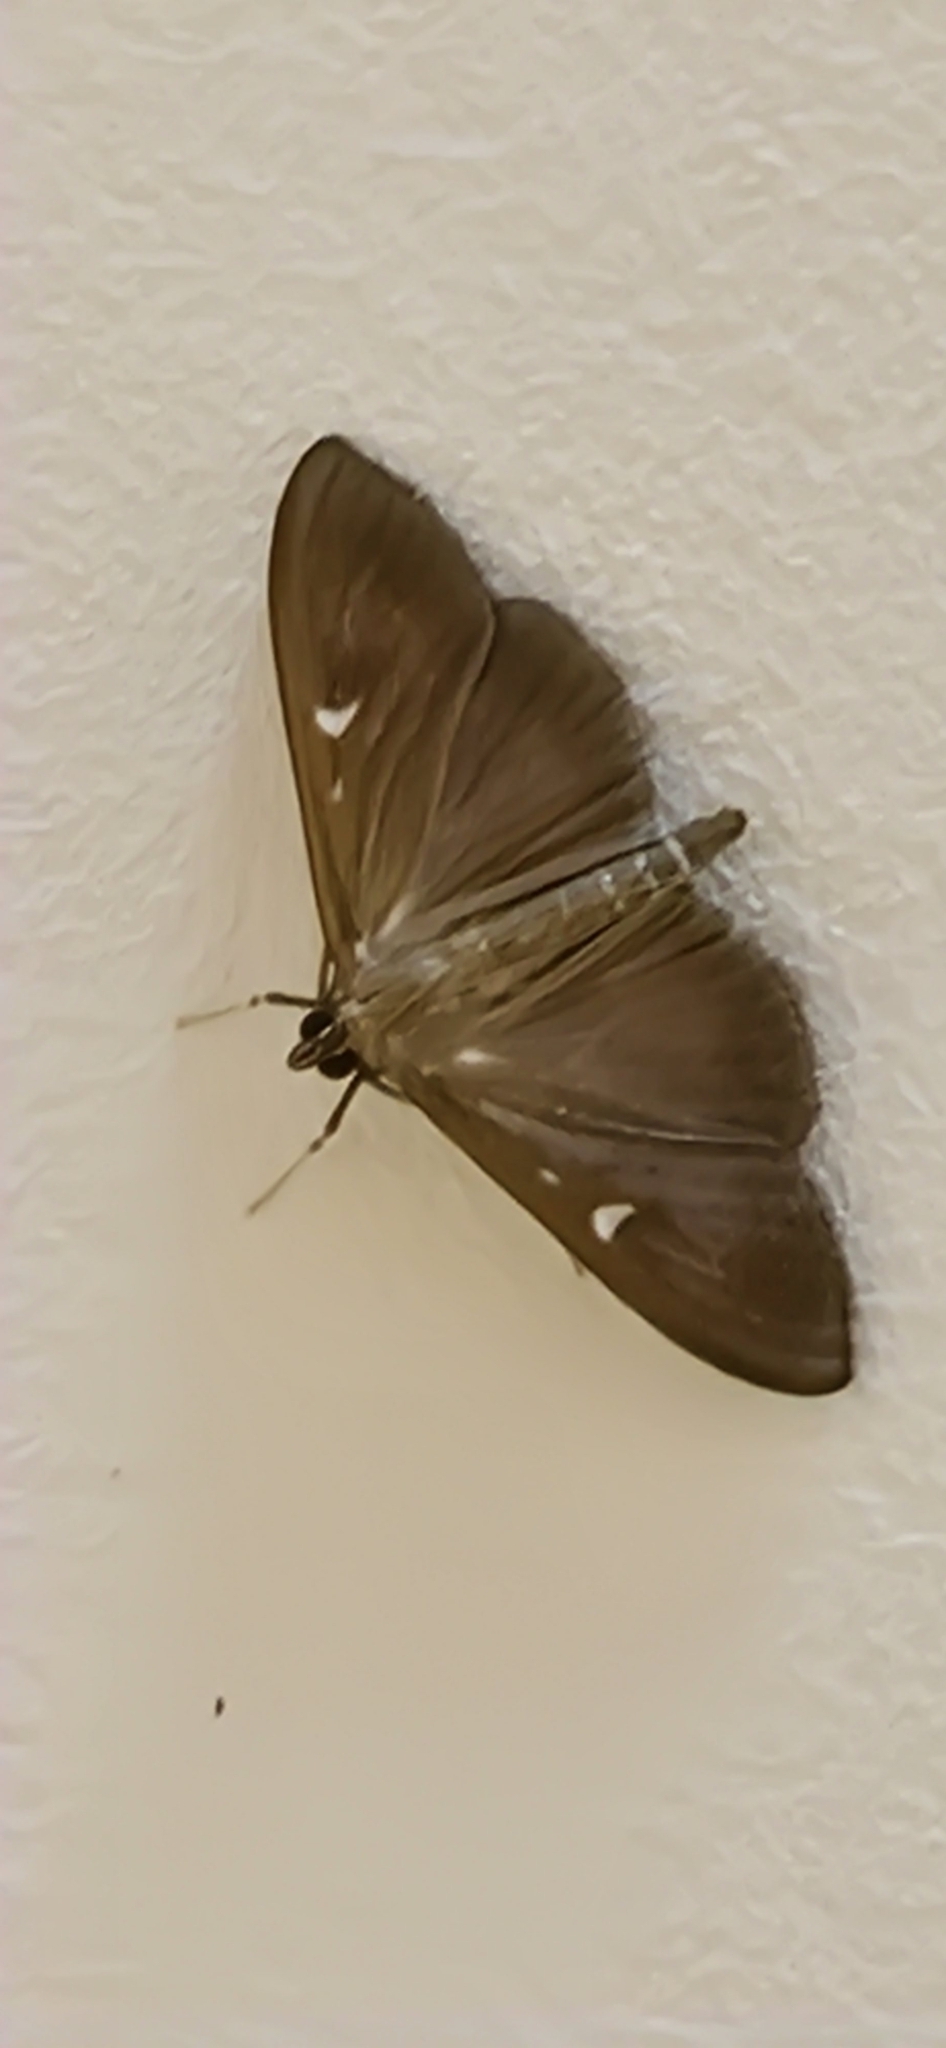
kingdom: Animalia
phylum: Arthropoda
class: Insecta
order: Lepidoptera
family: Crambidae
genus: Cydalima
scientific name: Cydalima perspectalis
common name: Box tree moth
